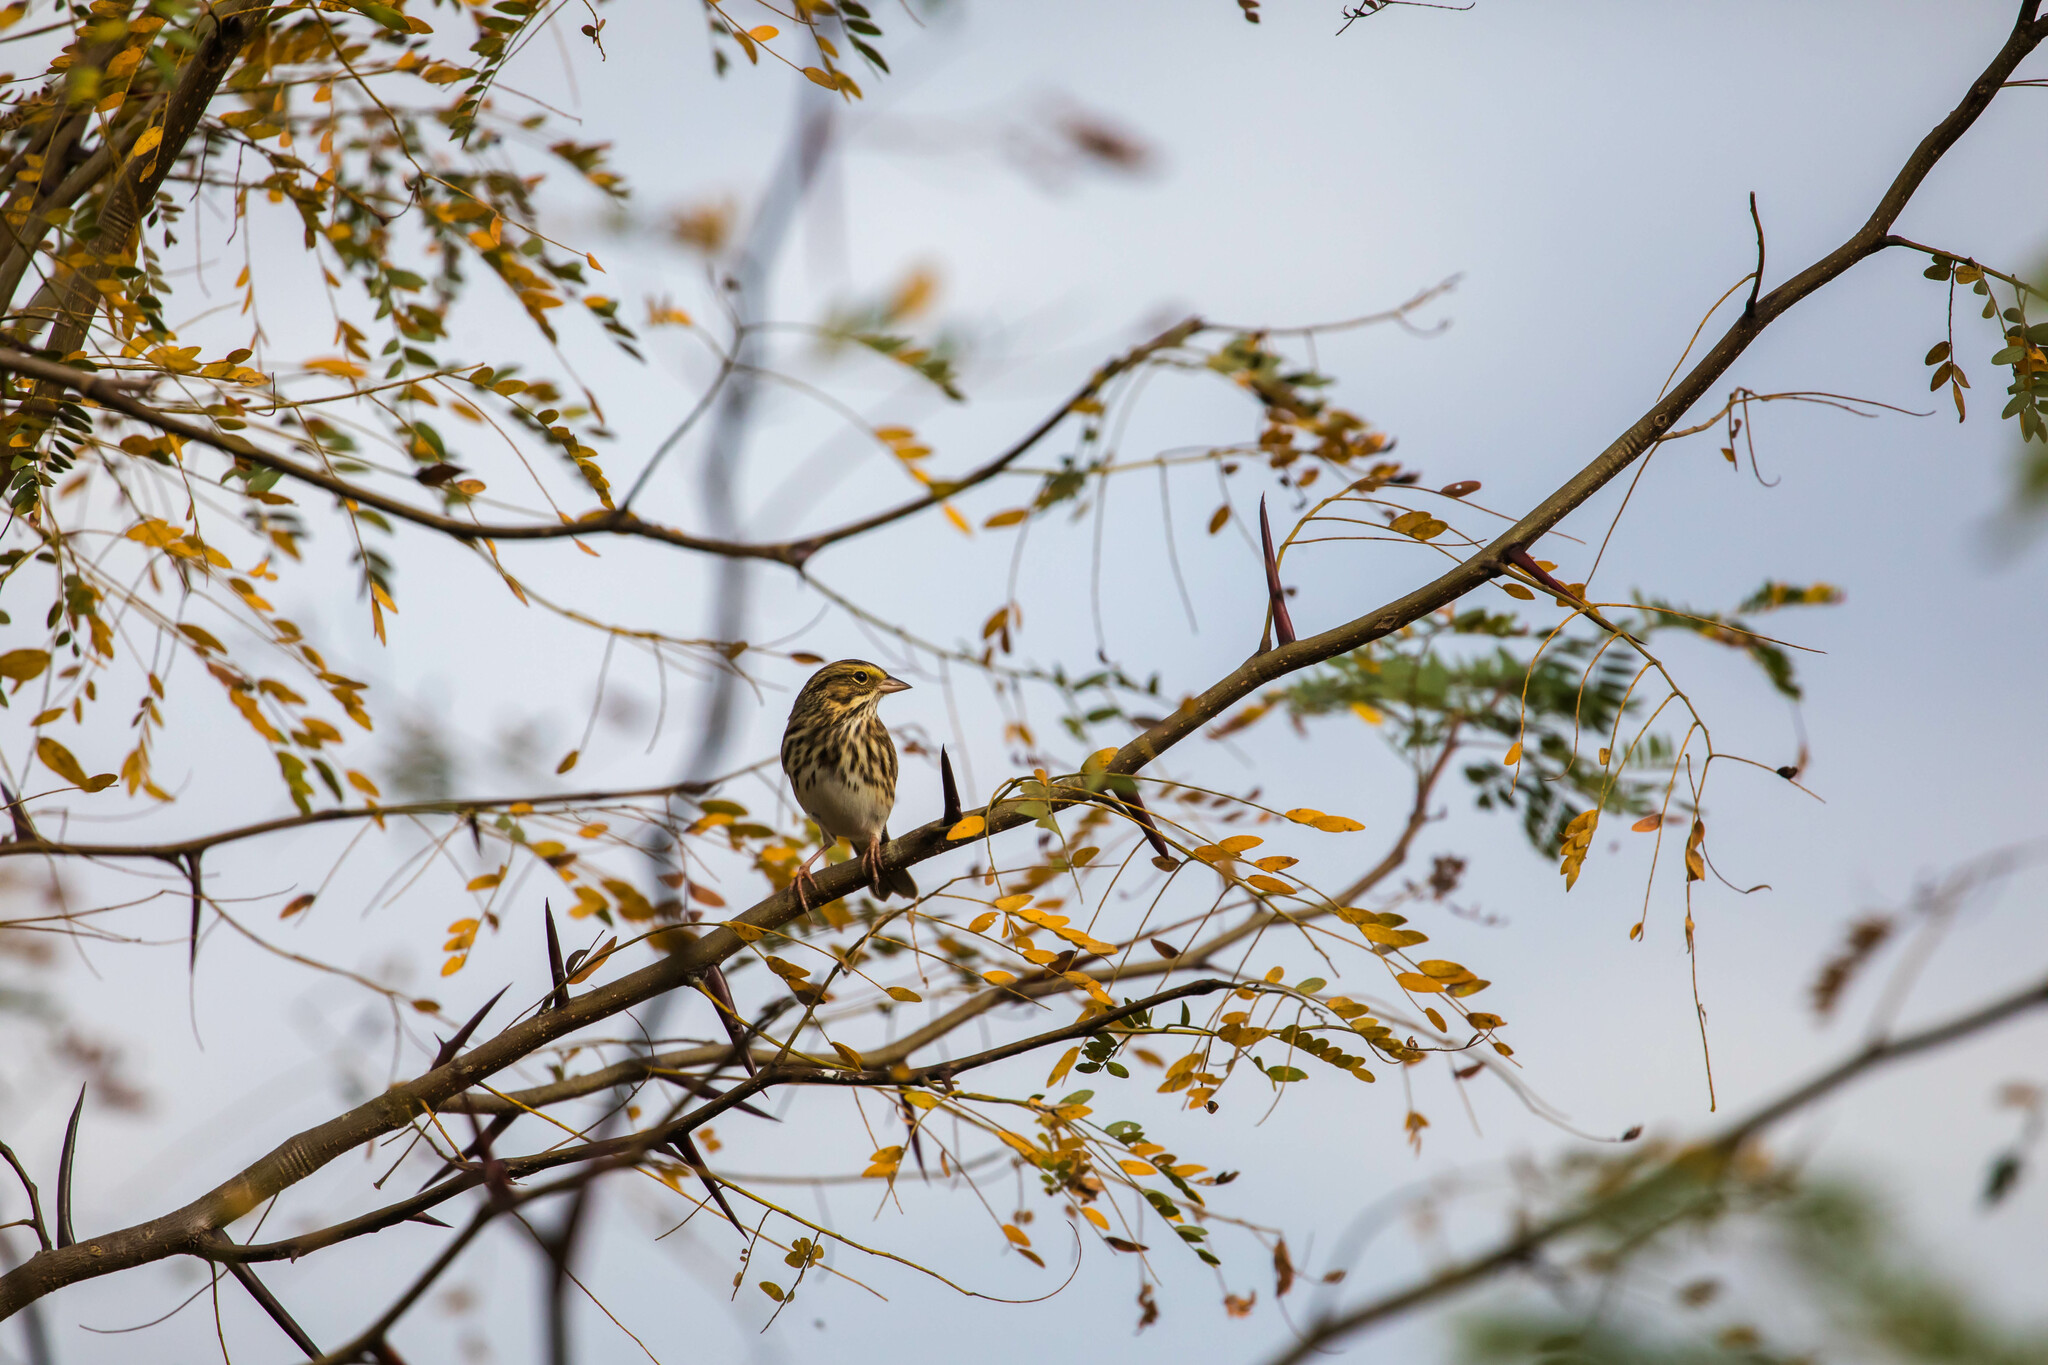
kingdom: Animalia
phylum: Chordata
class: Aves
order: Passeriformes
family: Passerellidae
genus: Passerculus
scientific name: Passerculus sandwichensis
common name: Savannah sparrow
